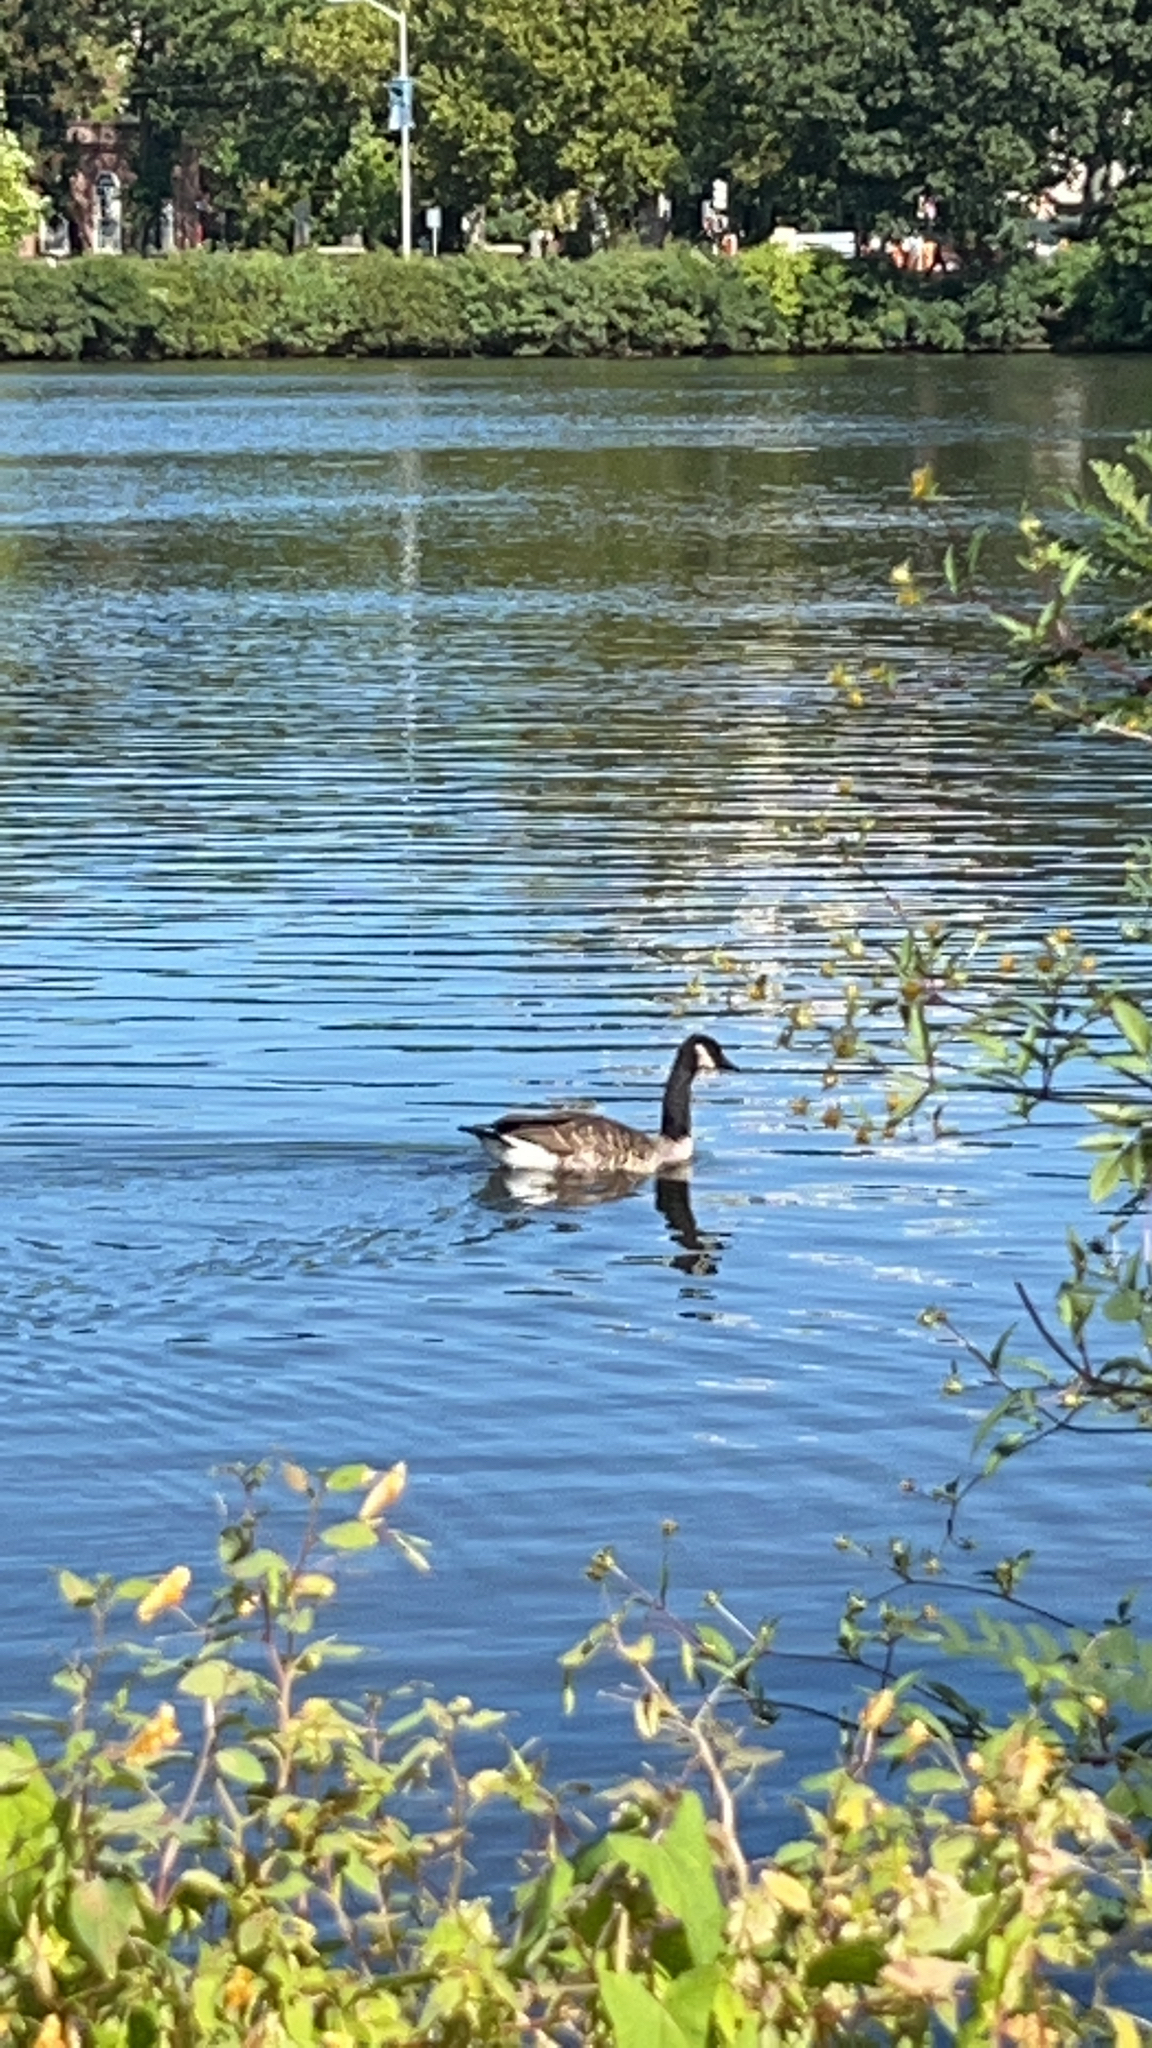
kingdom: Animalia
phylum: Chordata
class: Aves
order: Anseriformes
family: Anatidae
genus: Branta
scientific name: Branta canadensis
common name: Canada goose
